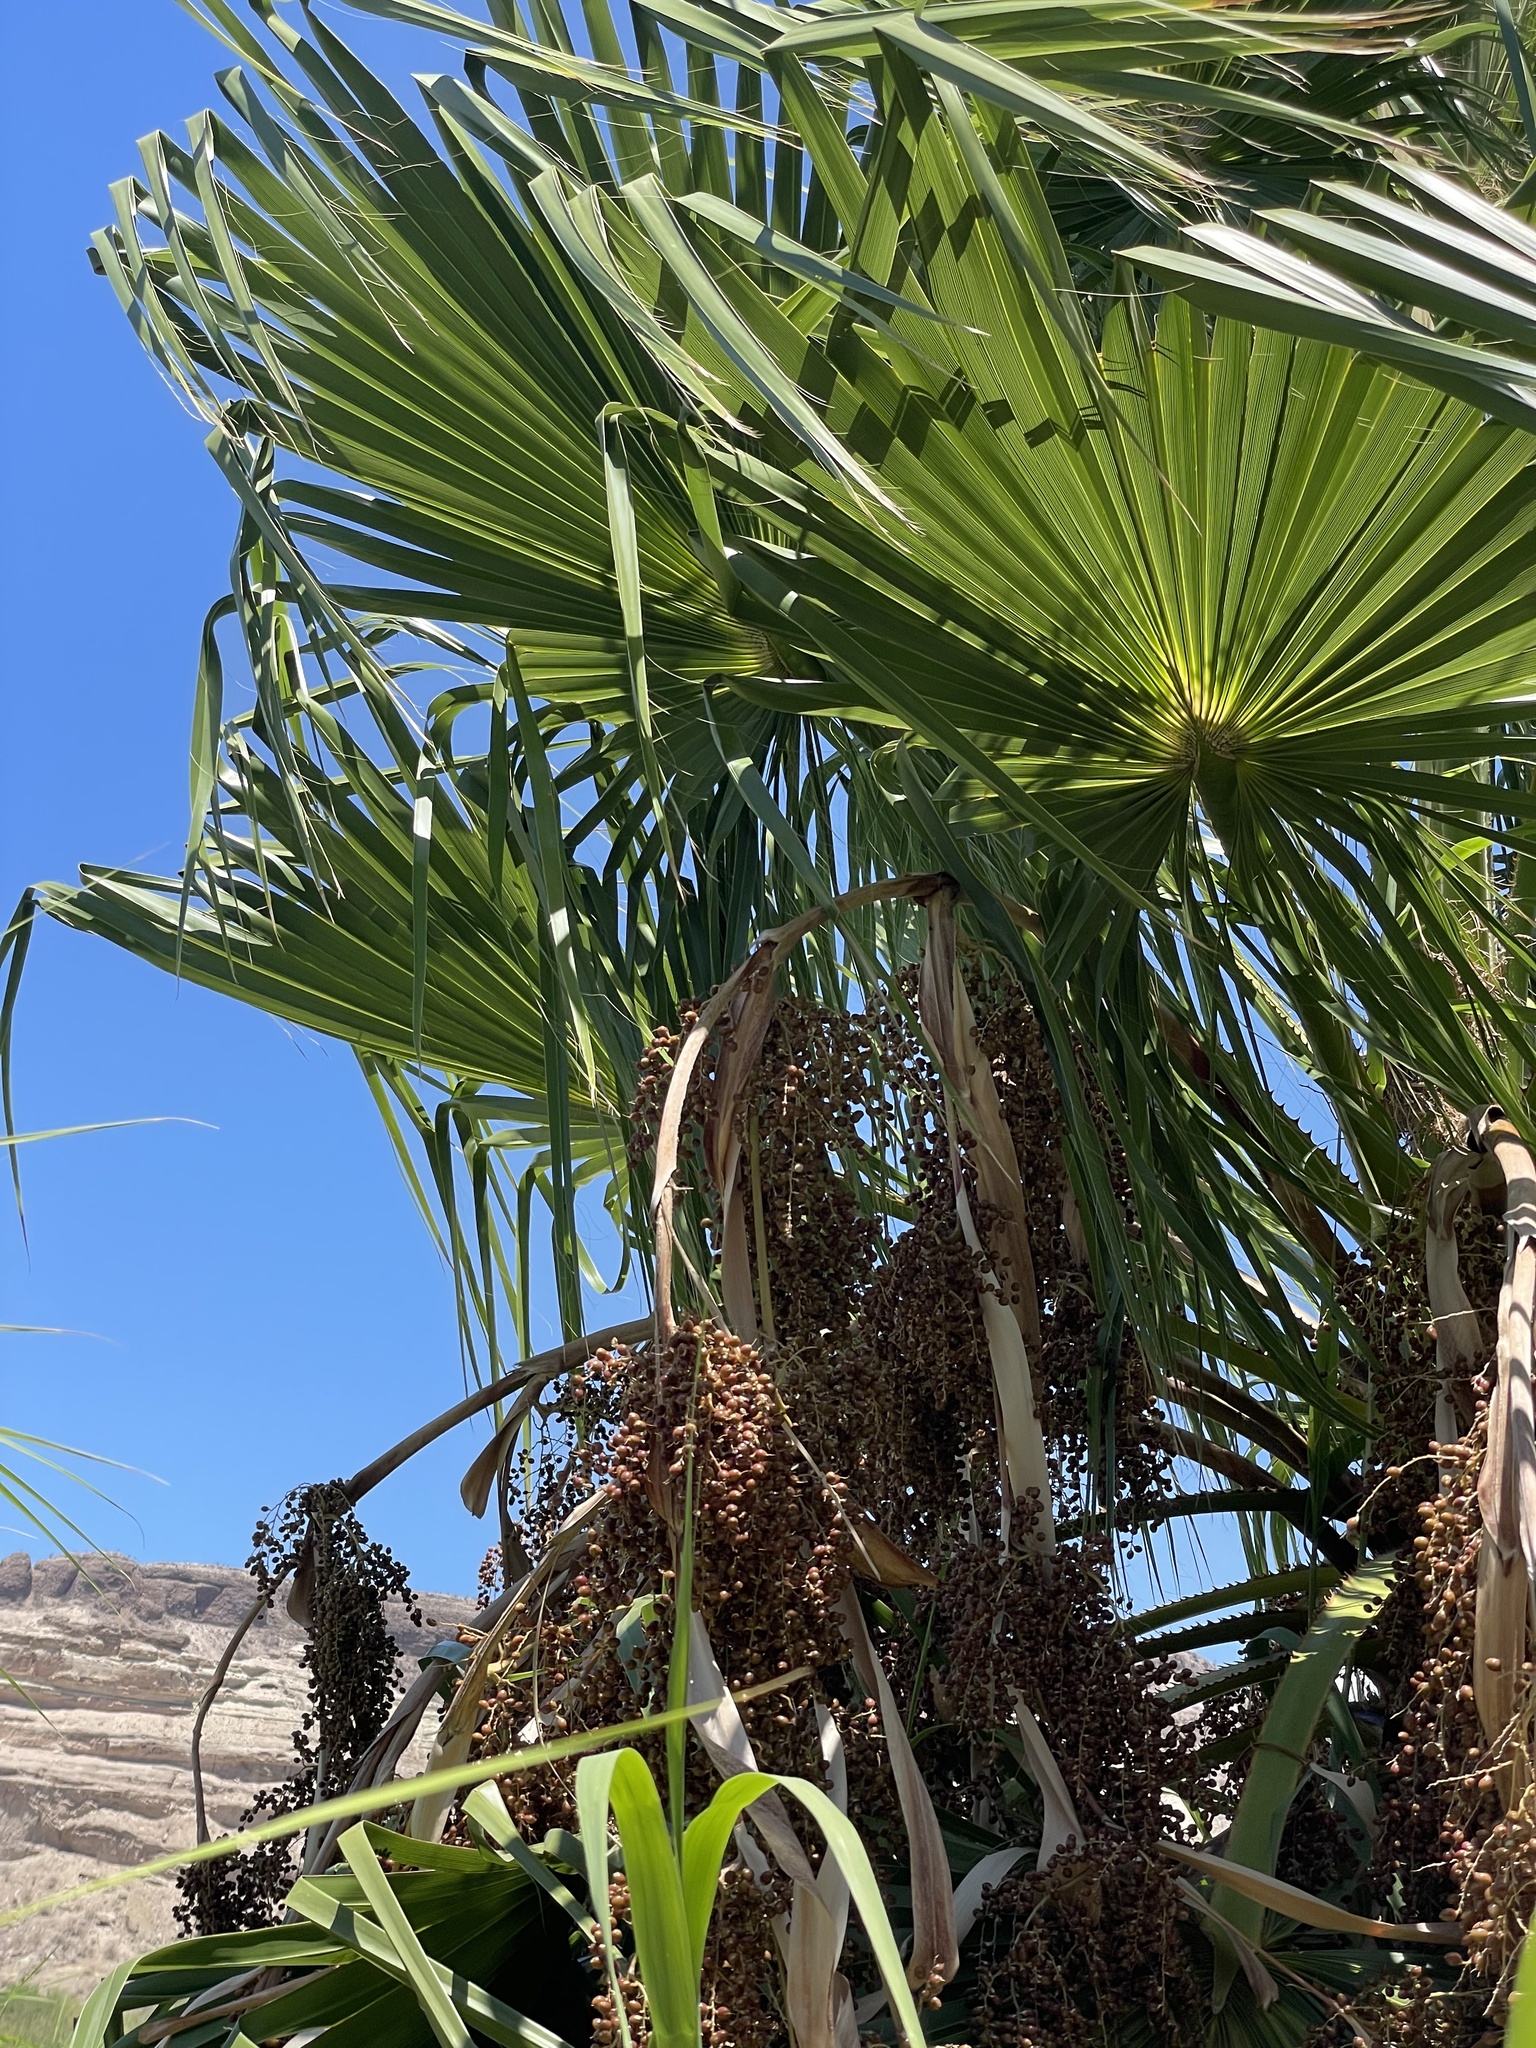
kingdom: Plantae
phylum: Tracheophyta
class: Liliopsida
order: Arecales
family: Arecaceae
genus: Washingtonia
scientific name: Washingtonia robusta
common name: Mexican fan palm
